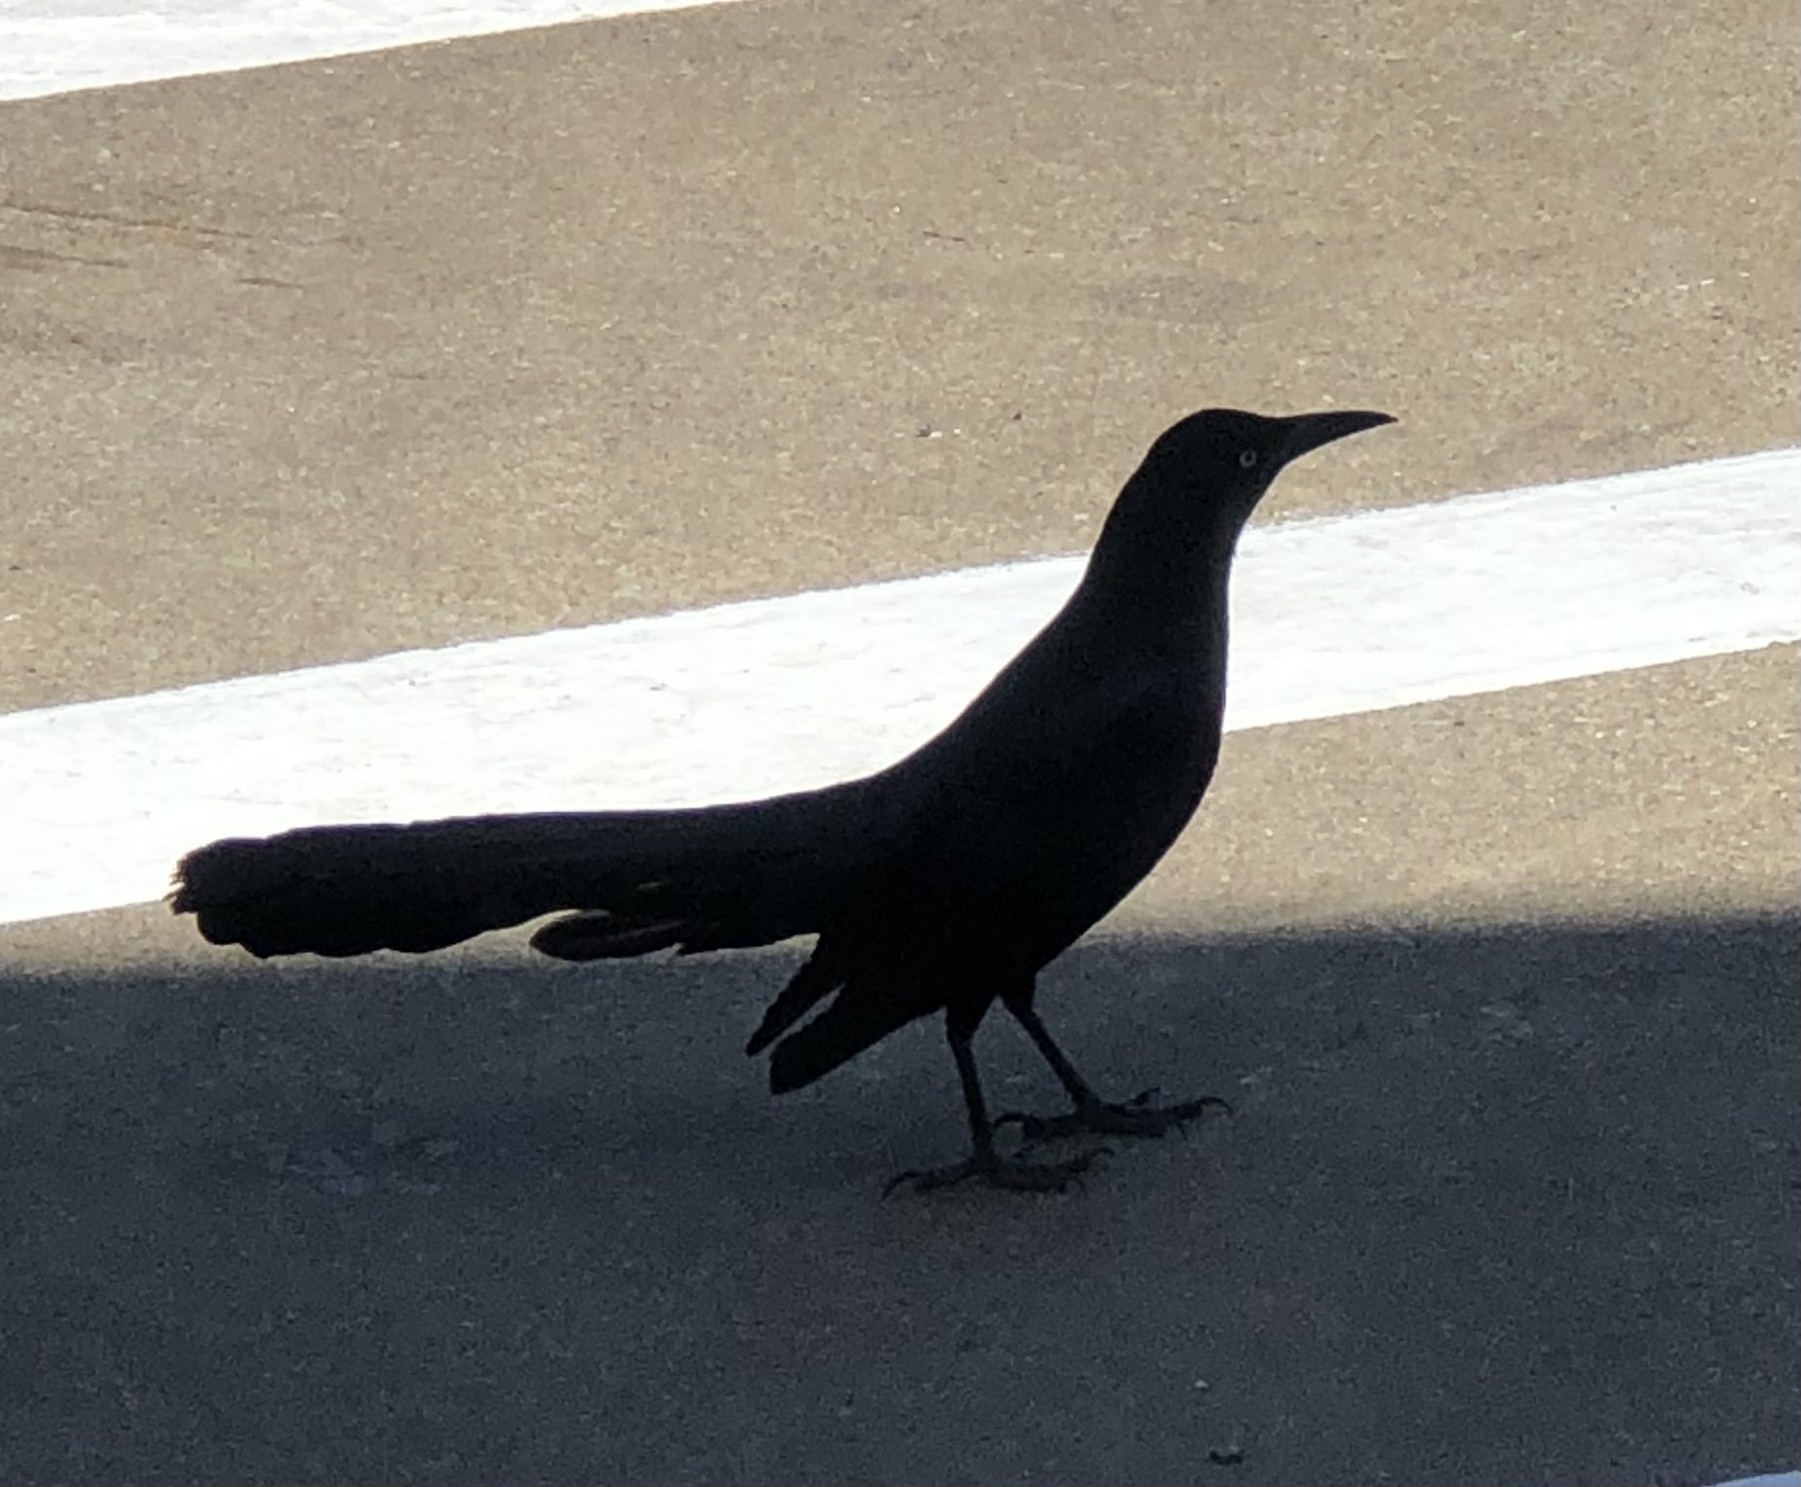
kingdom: Animalia
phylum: Chordata
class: Aves
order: Passeriformes
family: Icteridae
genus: Quiscalus
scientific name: Quiscalus mexicanus
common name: Great-tailed grackle
